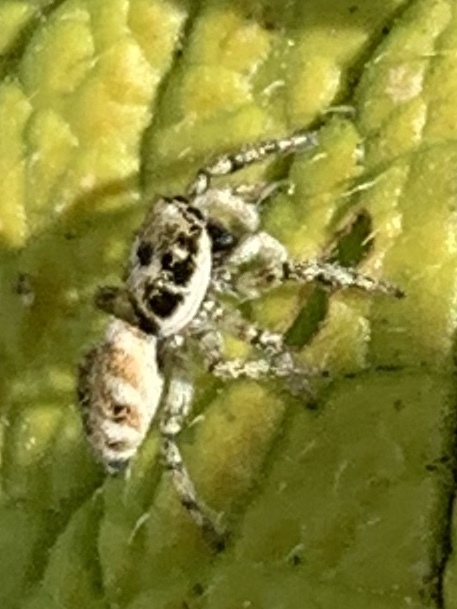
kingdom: Animalia
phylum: Arthropoda
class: Arachnida
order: Araneae
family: Salticidae
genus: Salticus
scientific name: Salticus scenicus
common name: Zebra jumper
